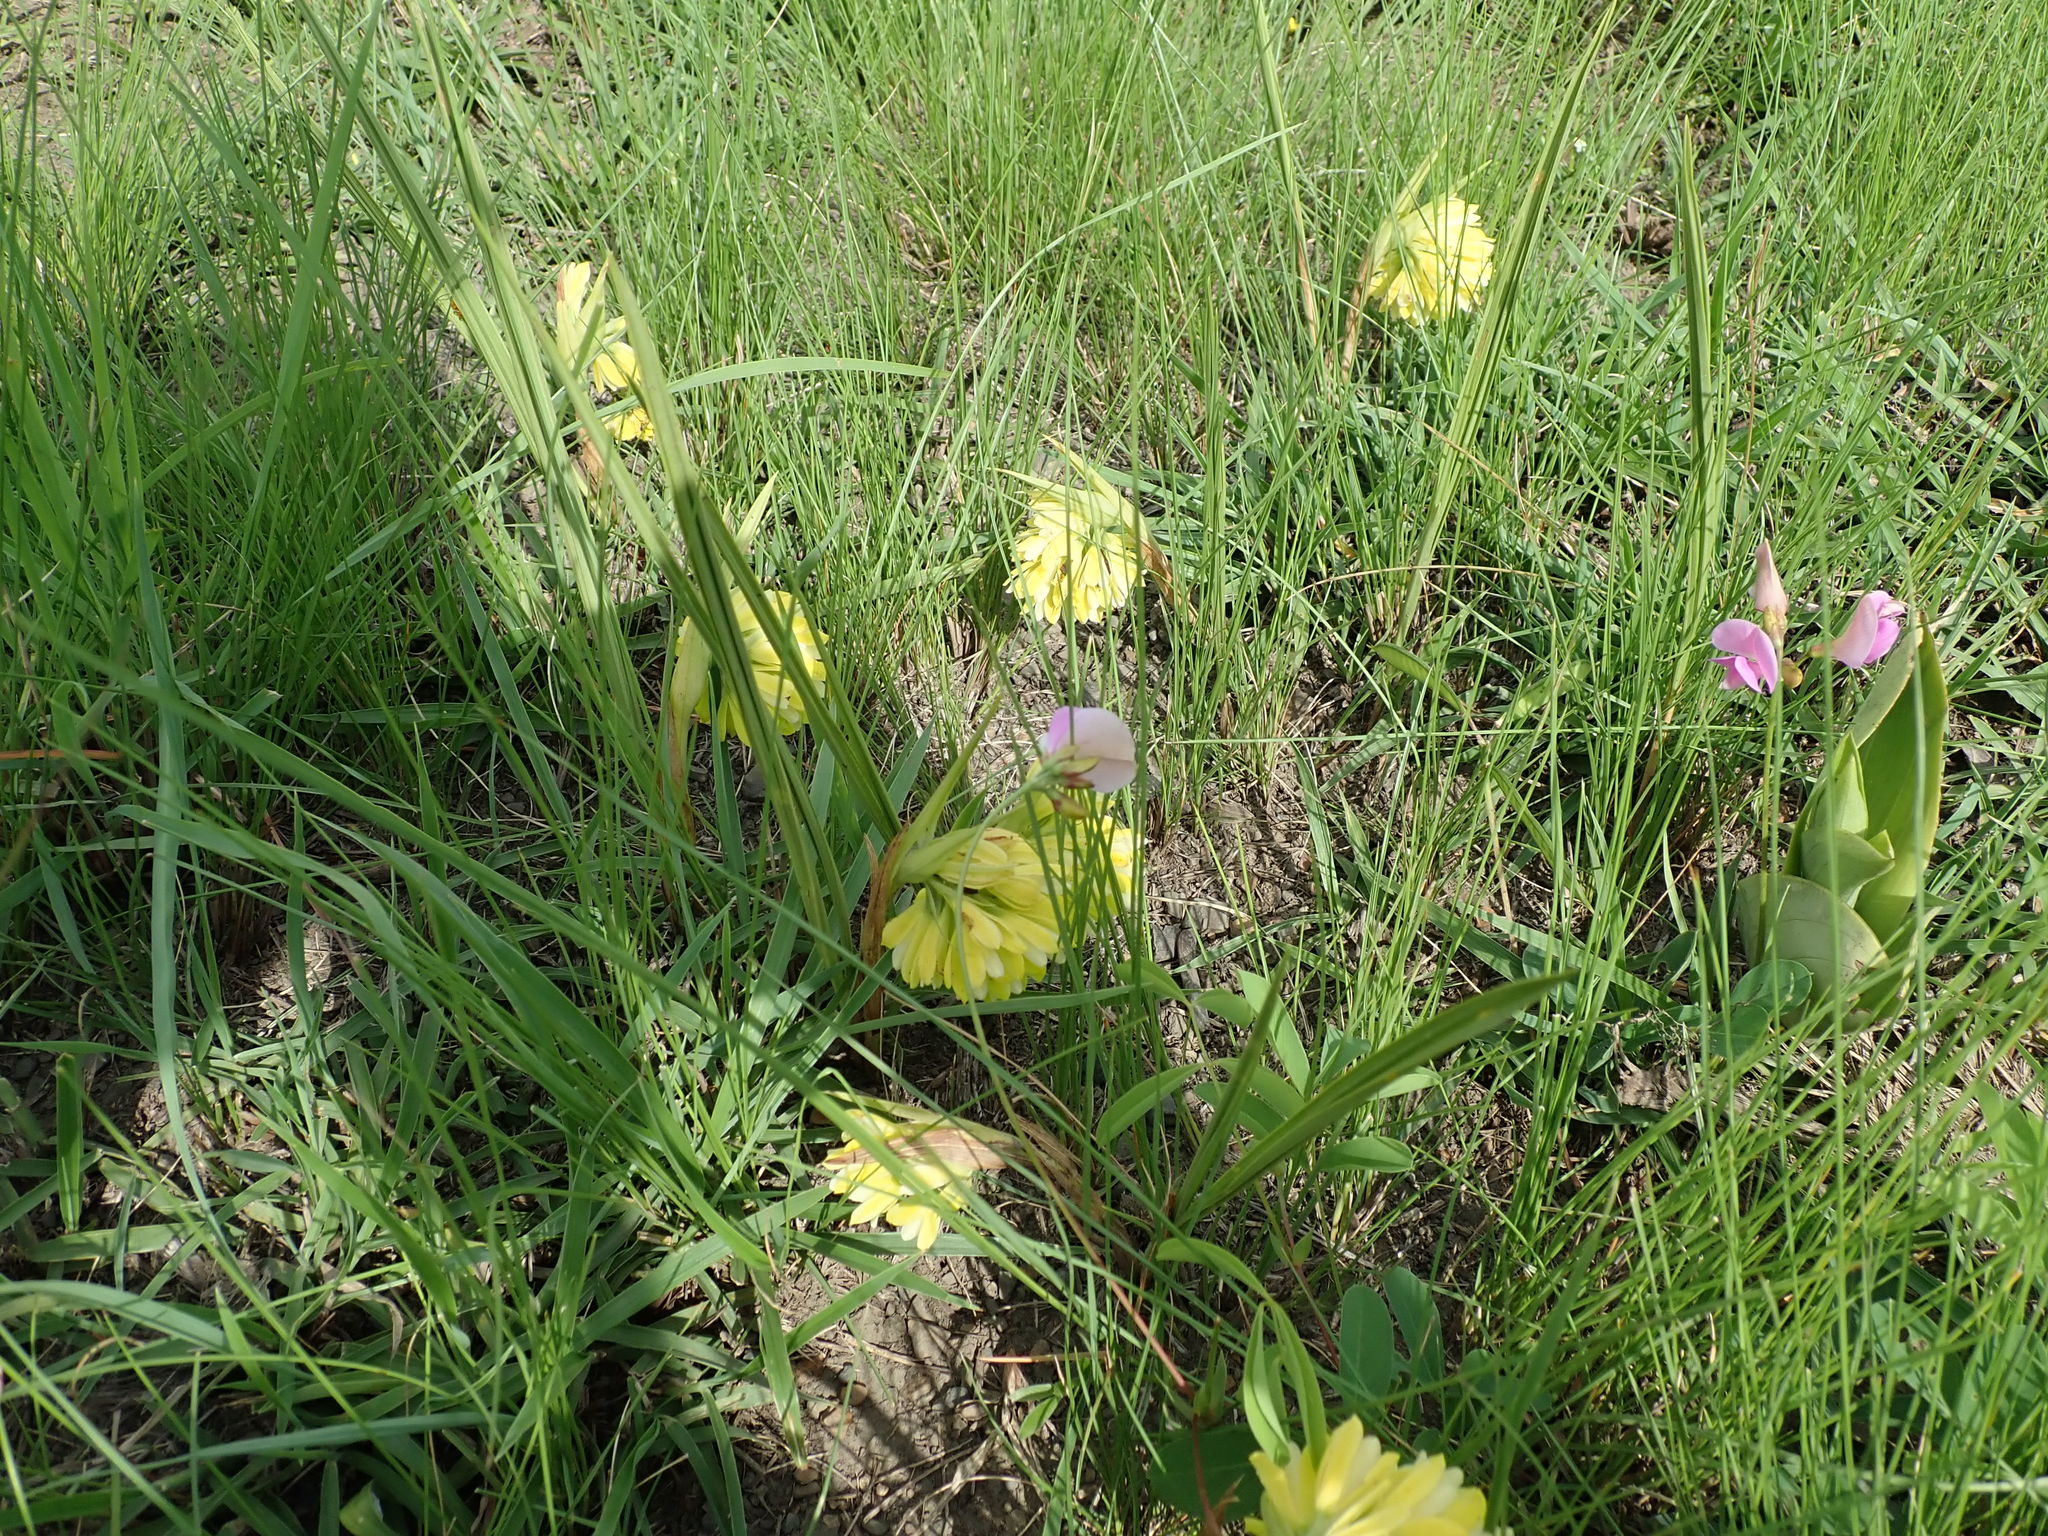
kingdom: Plantae
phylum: Tracheophyta
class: Liliopsida
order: Asparagales
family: Orchidaceae
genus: Eulophia
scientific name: Eulophia leontoglossa
